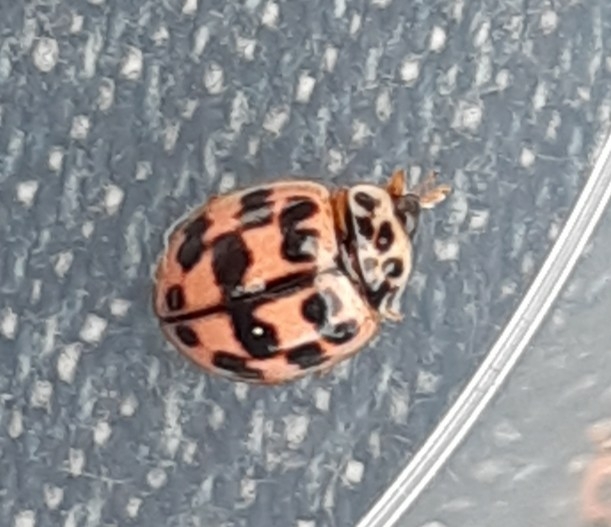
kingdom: Animalia
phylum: Arthropoda
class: Insecta
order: Coleoptera
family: Coccinellidae
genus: Oenopia
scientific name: Oenopia conglobata
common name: Ladybird beetle
